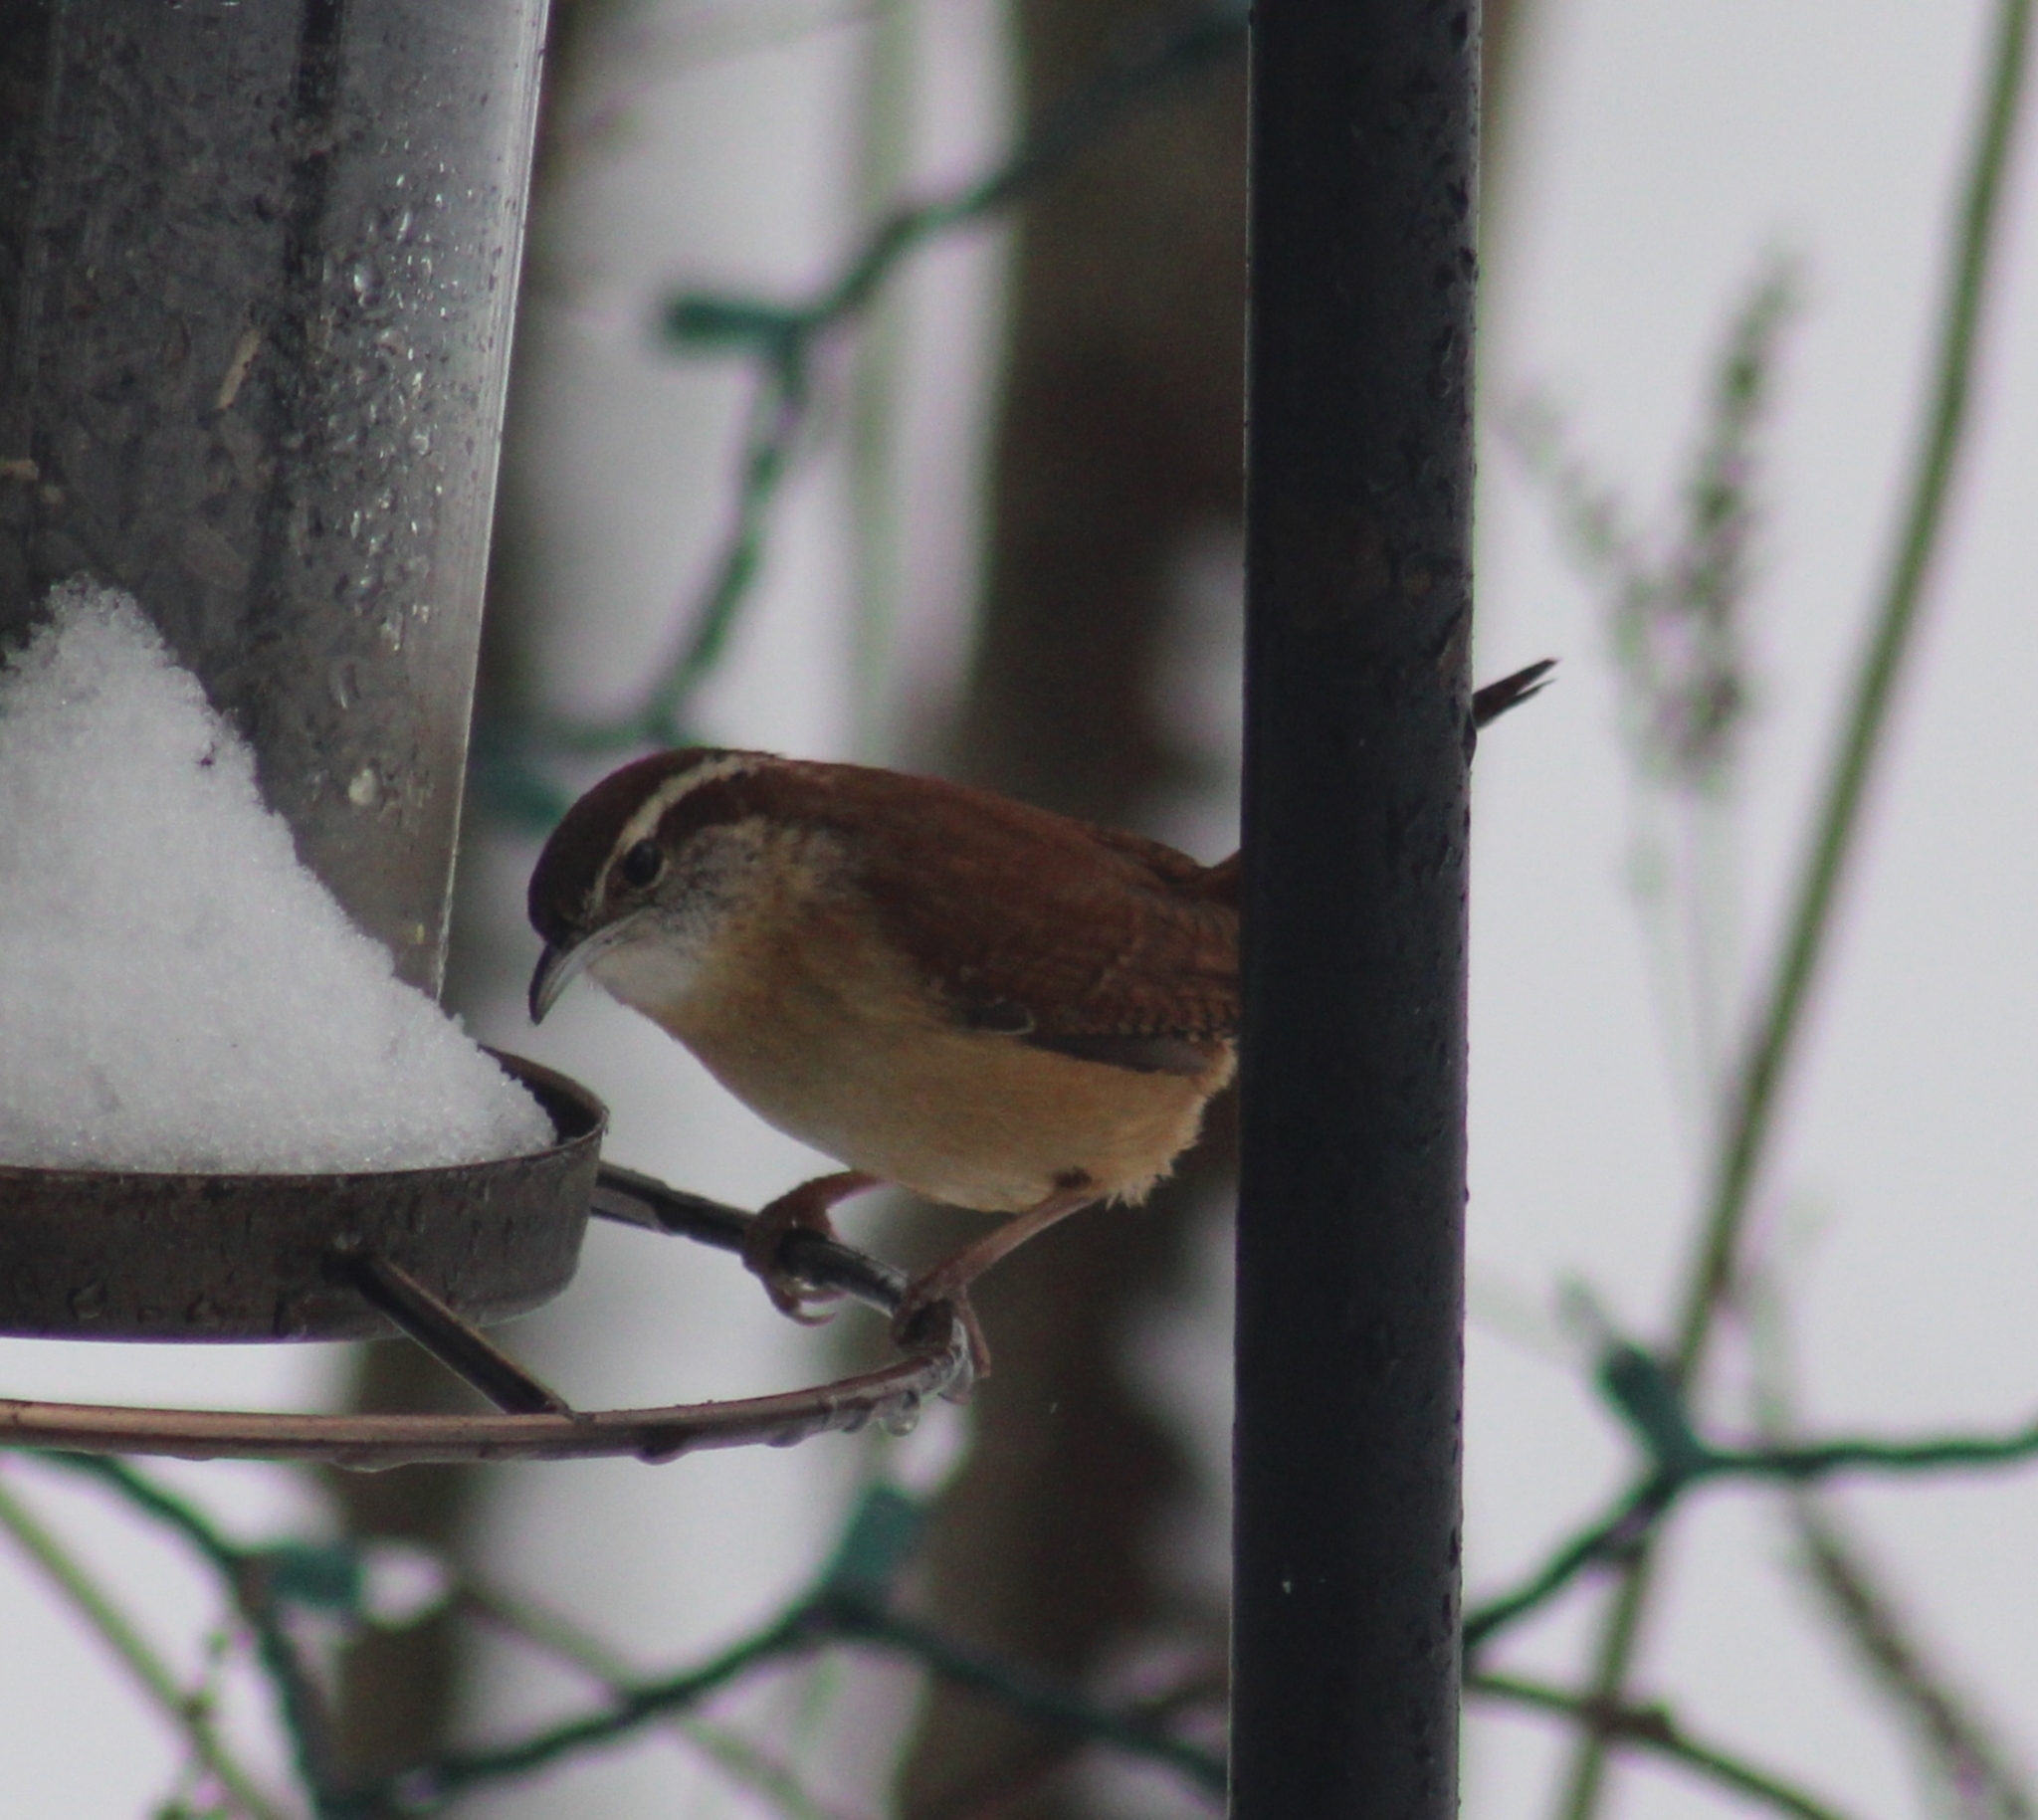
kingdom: Animalia
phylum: Chordata
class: Aves
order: Passeriformes
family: Troglodytidae
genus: Thryothorus
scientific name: Thryothorus ludovicianus
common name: Carolina wren
